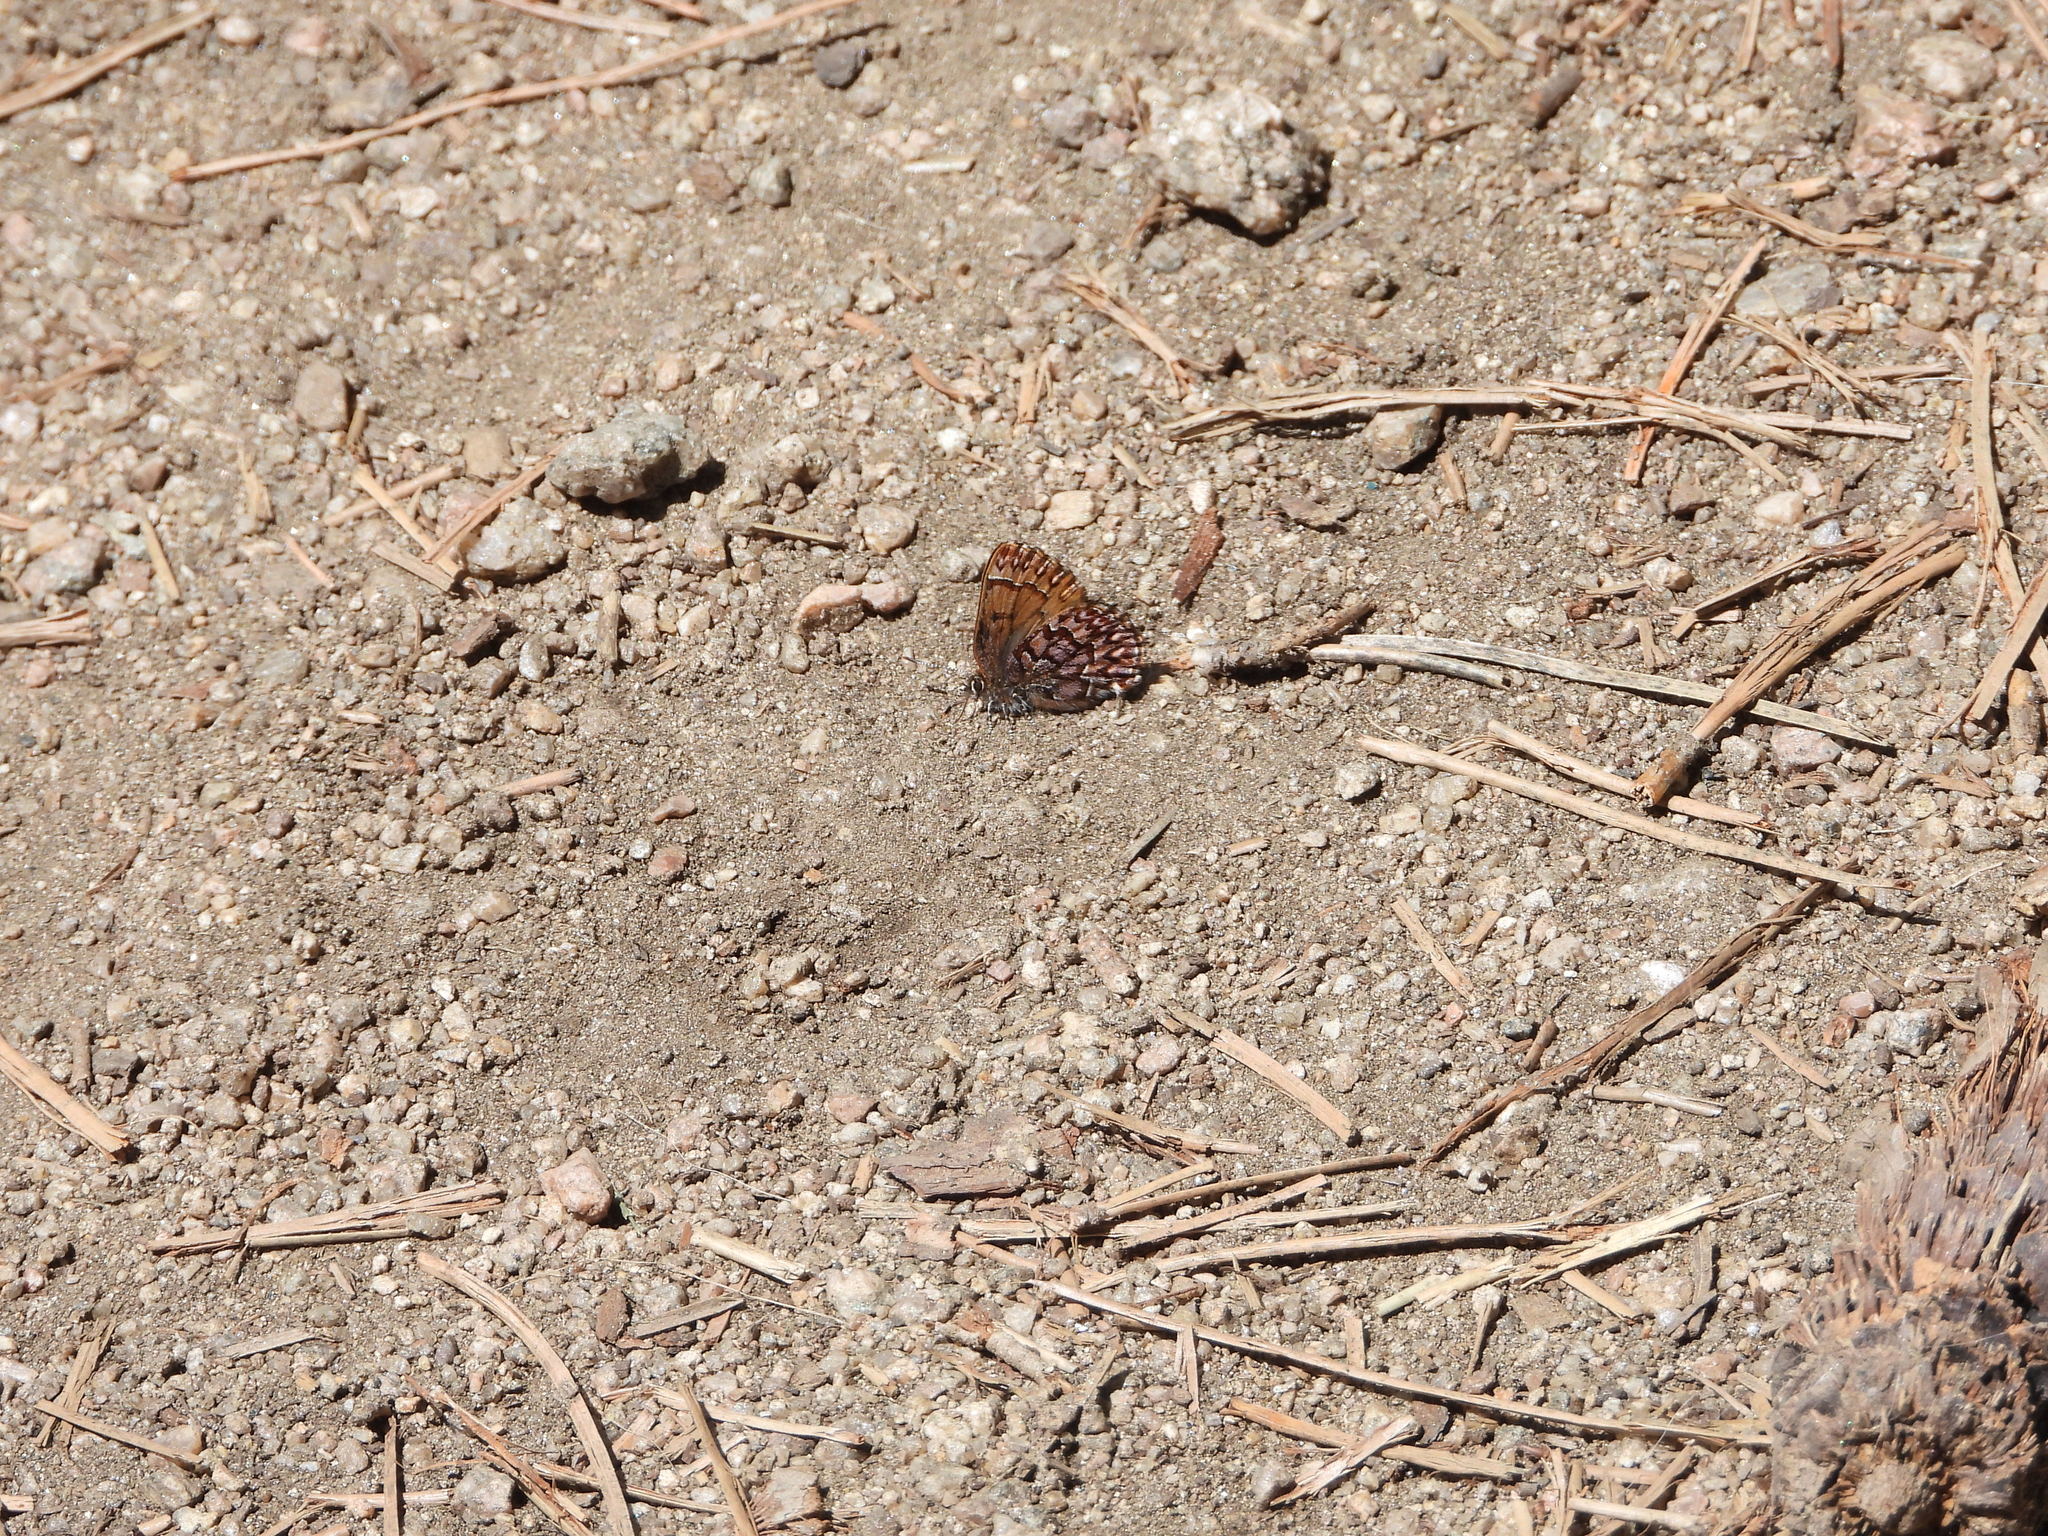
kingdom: Animalia
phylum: Arthropoda
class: Insecta
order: Lepidoptera
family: Lycaenidae
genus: Incisalia
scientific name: Incisalia eryphon
